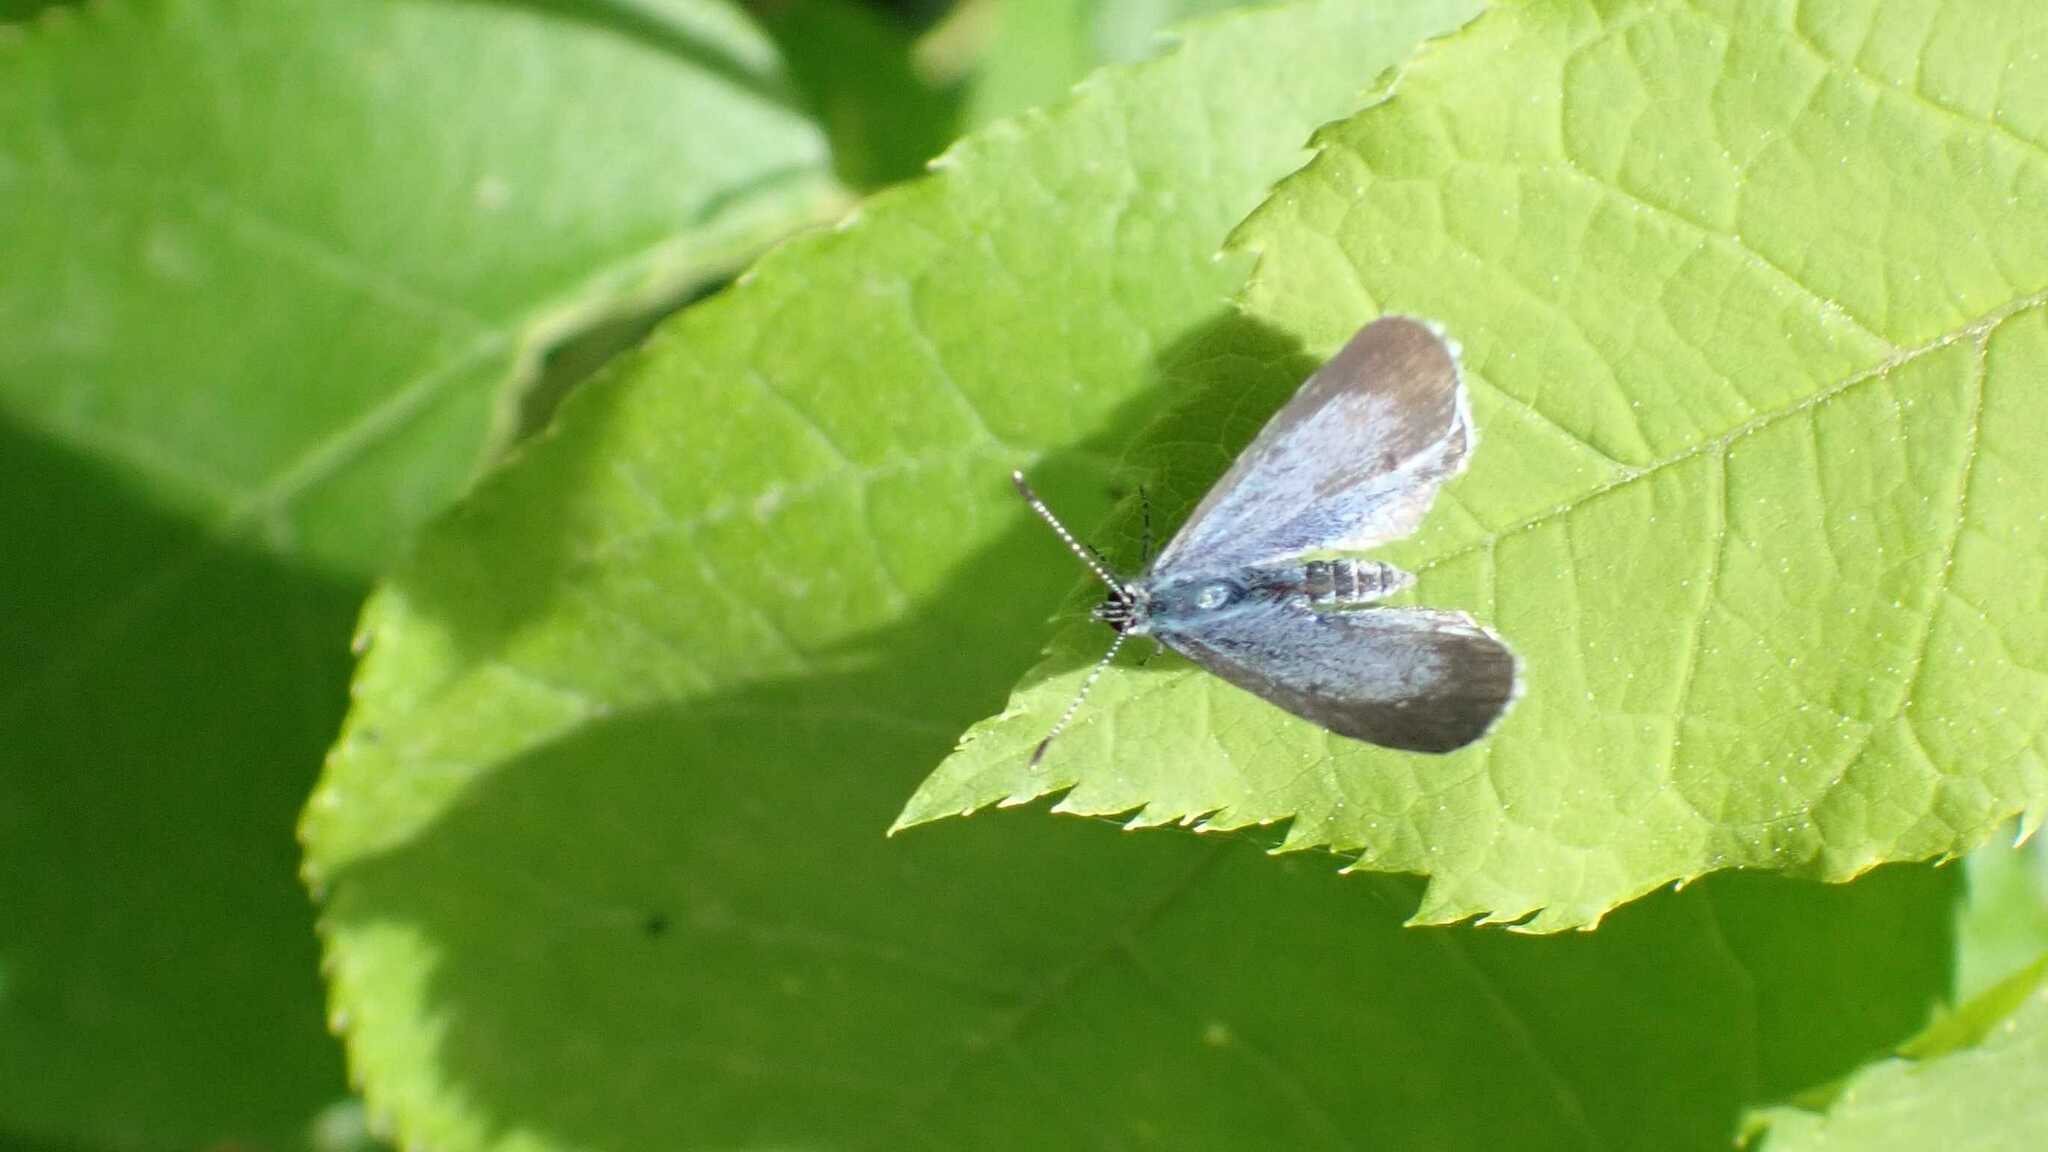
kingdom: Animalia
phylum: Arthropoda
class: Insecta
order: Lepidoptera
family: Lycaenidae
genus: Celastrina
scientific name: Celastrina argiolus
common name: Holly blue
